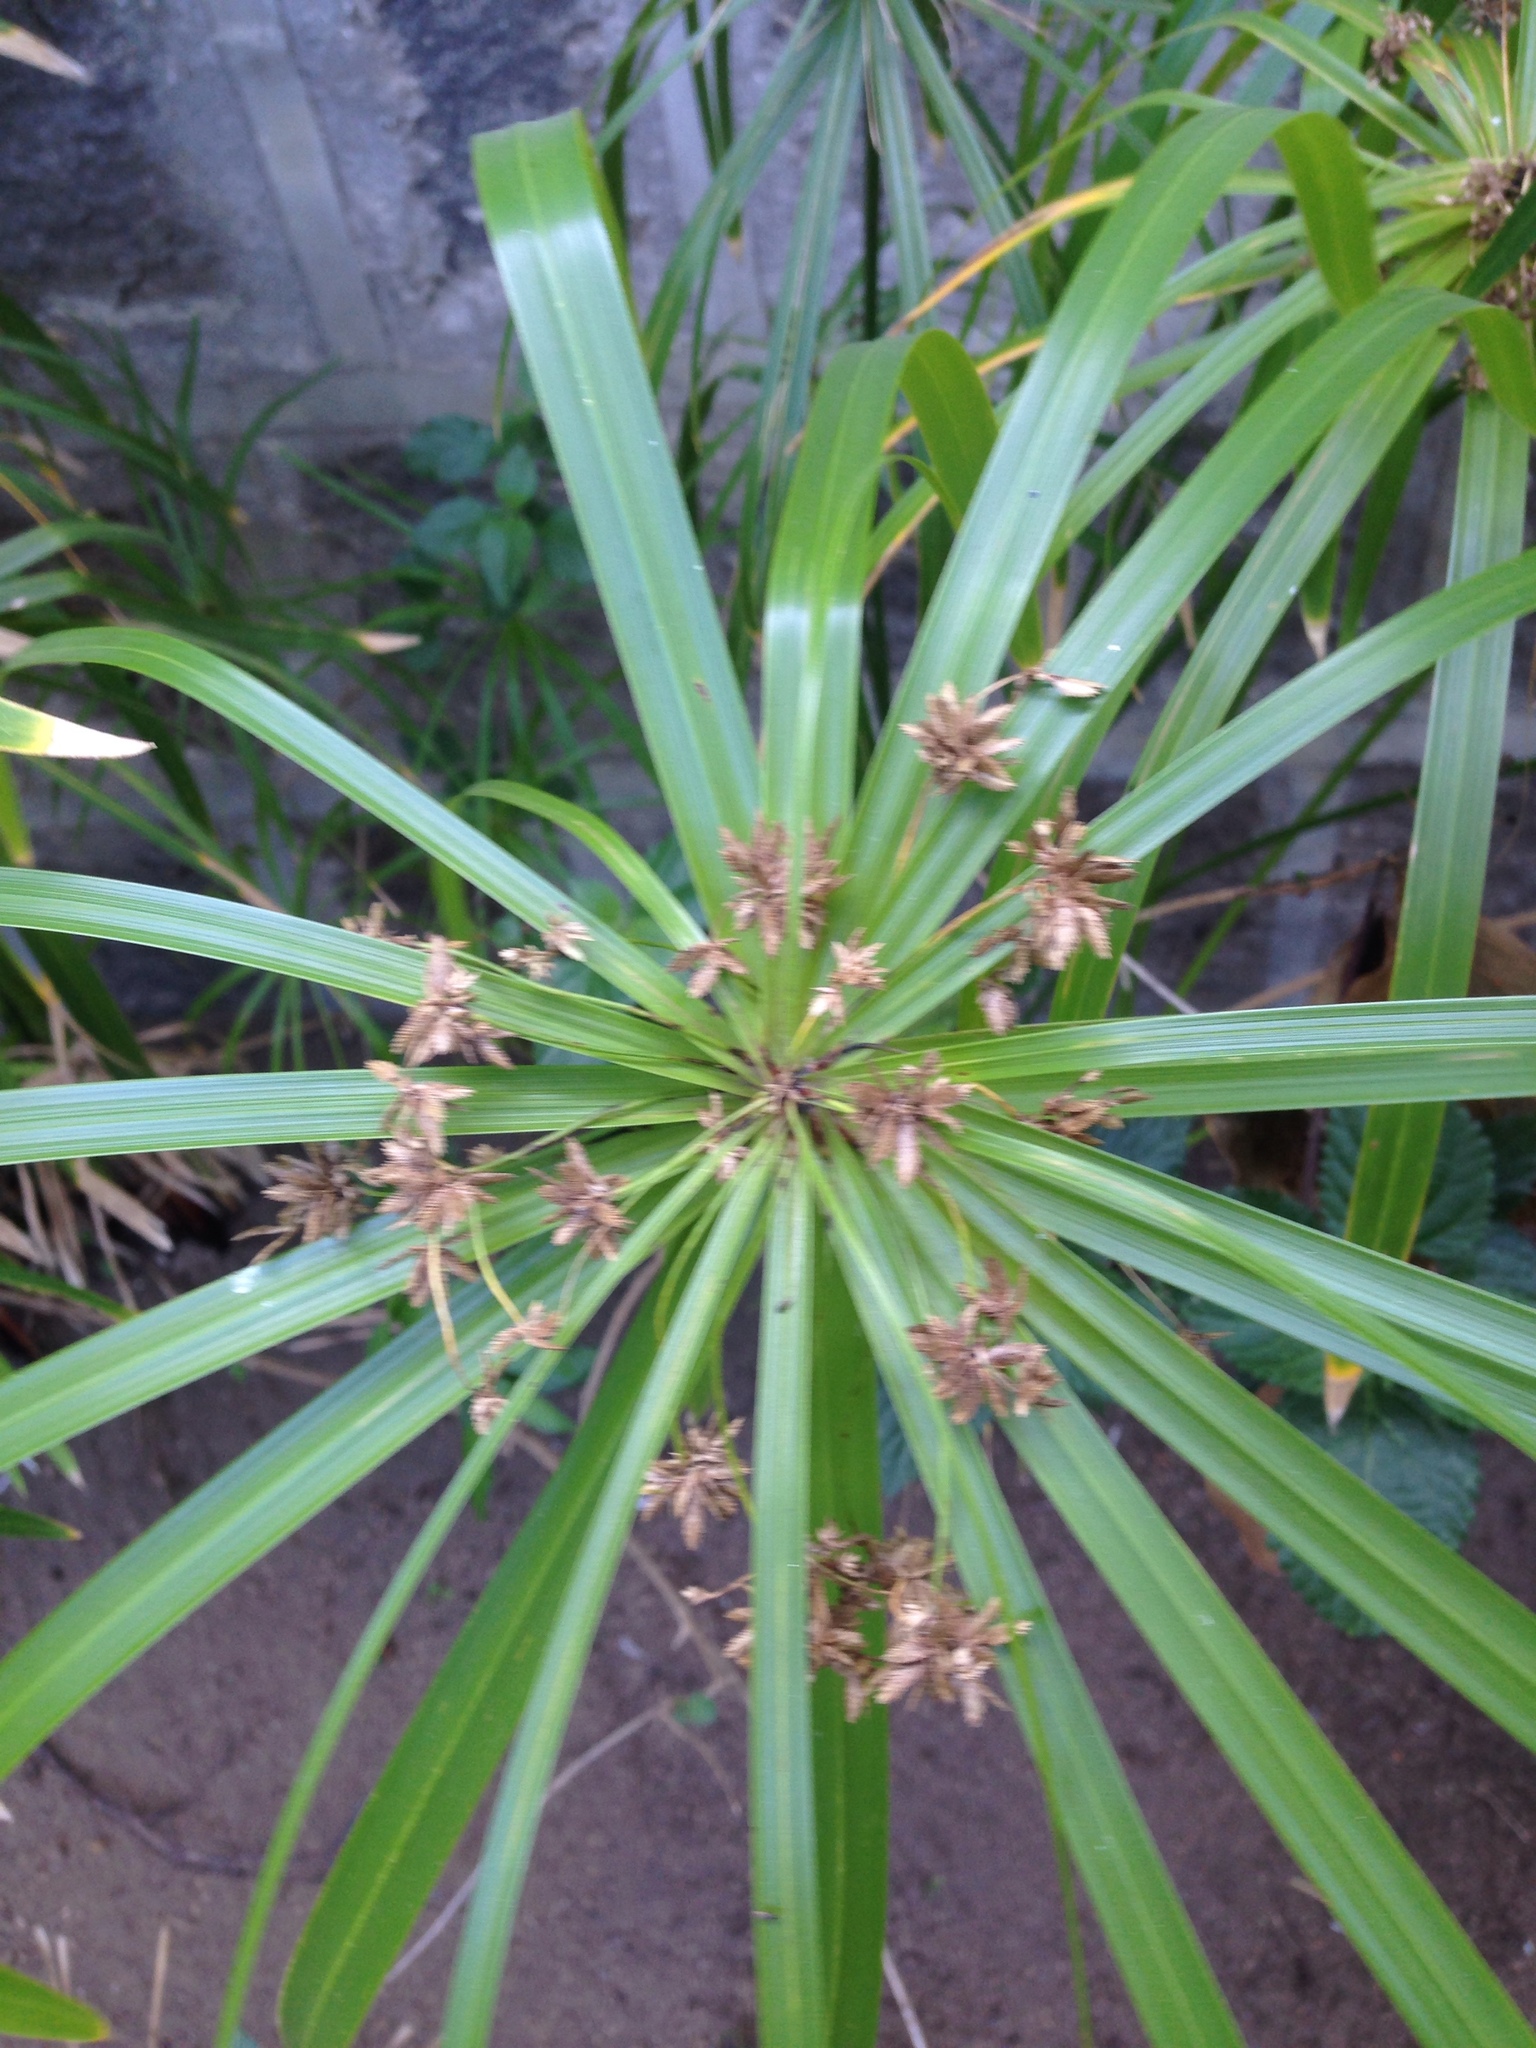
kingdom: Plantae
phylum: Tracheophyta
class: Liliopsida
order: Poales
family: Cyperaceae
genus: Cyperus
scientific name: Cyperus alternifolius
